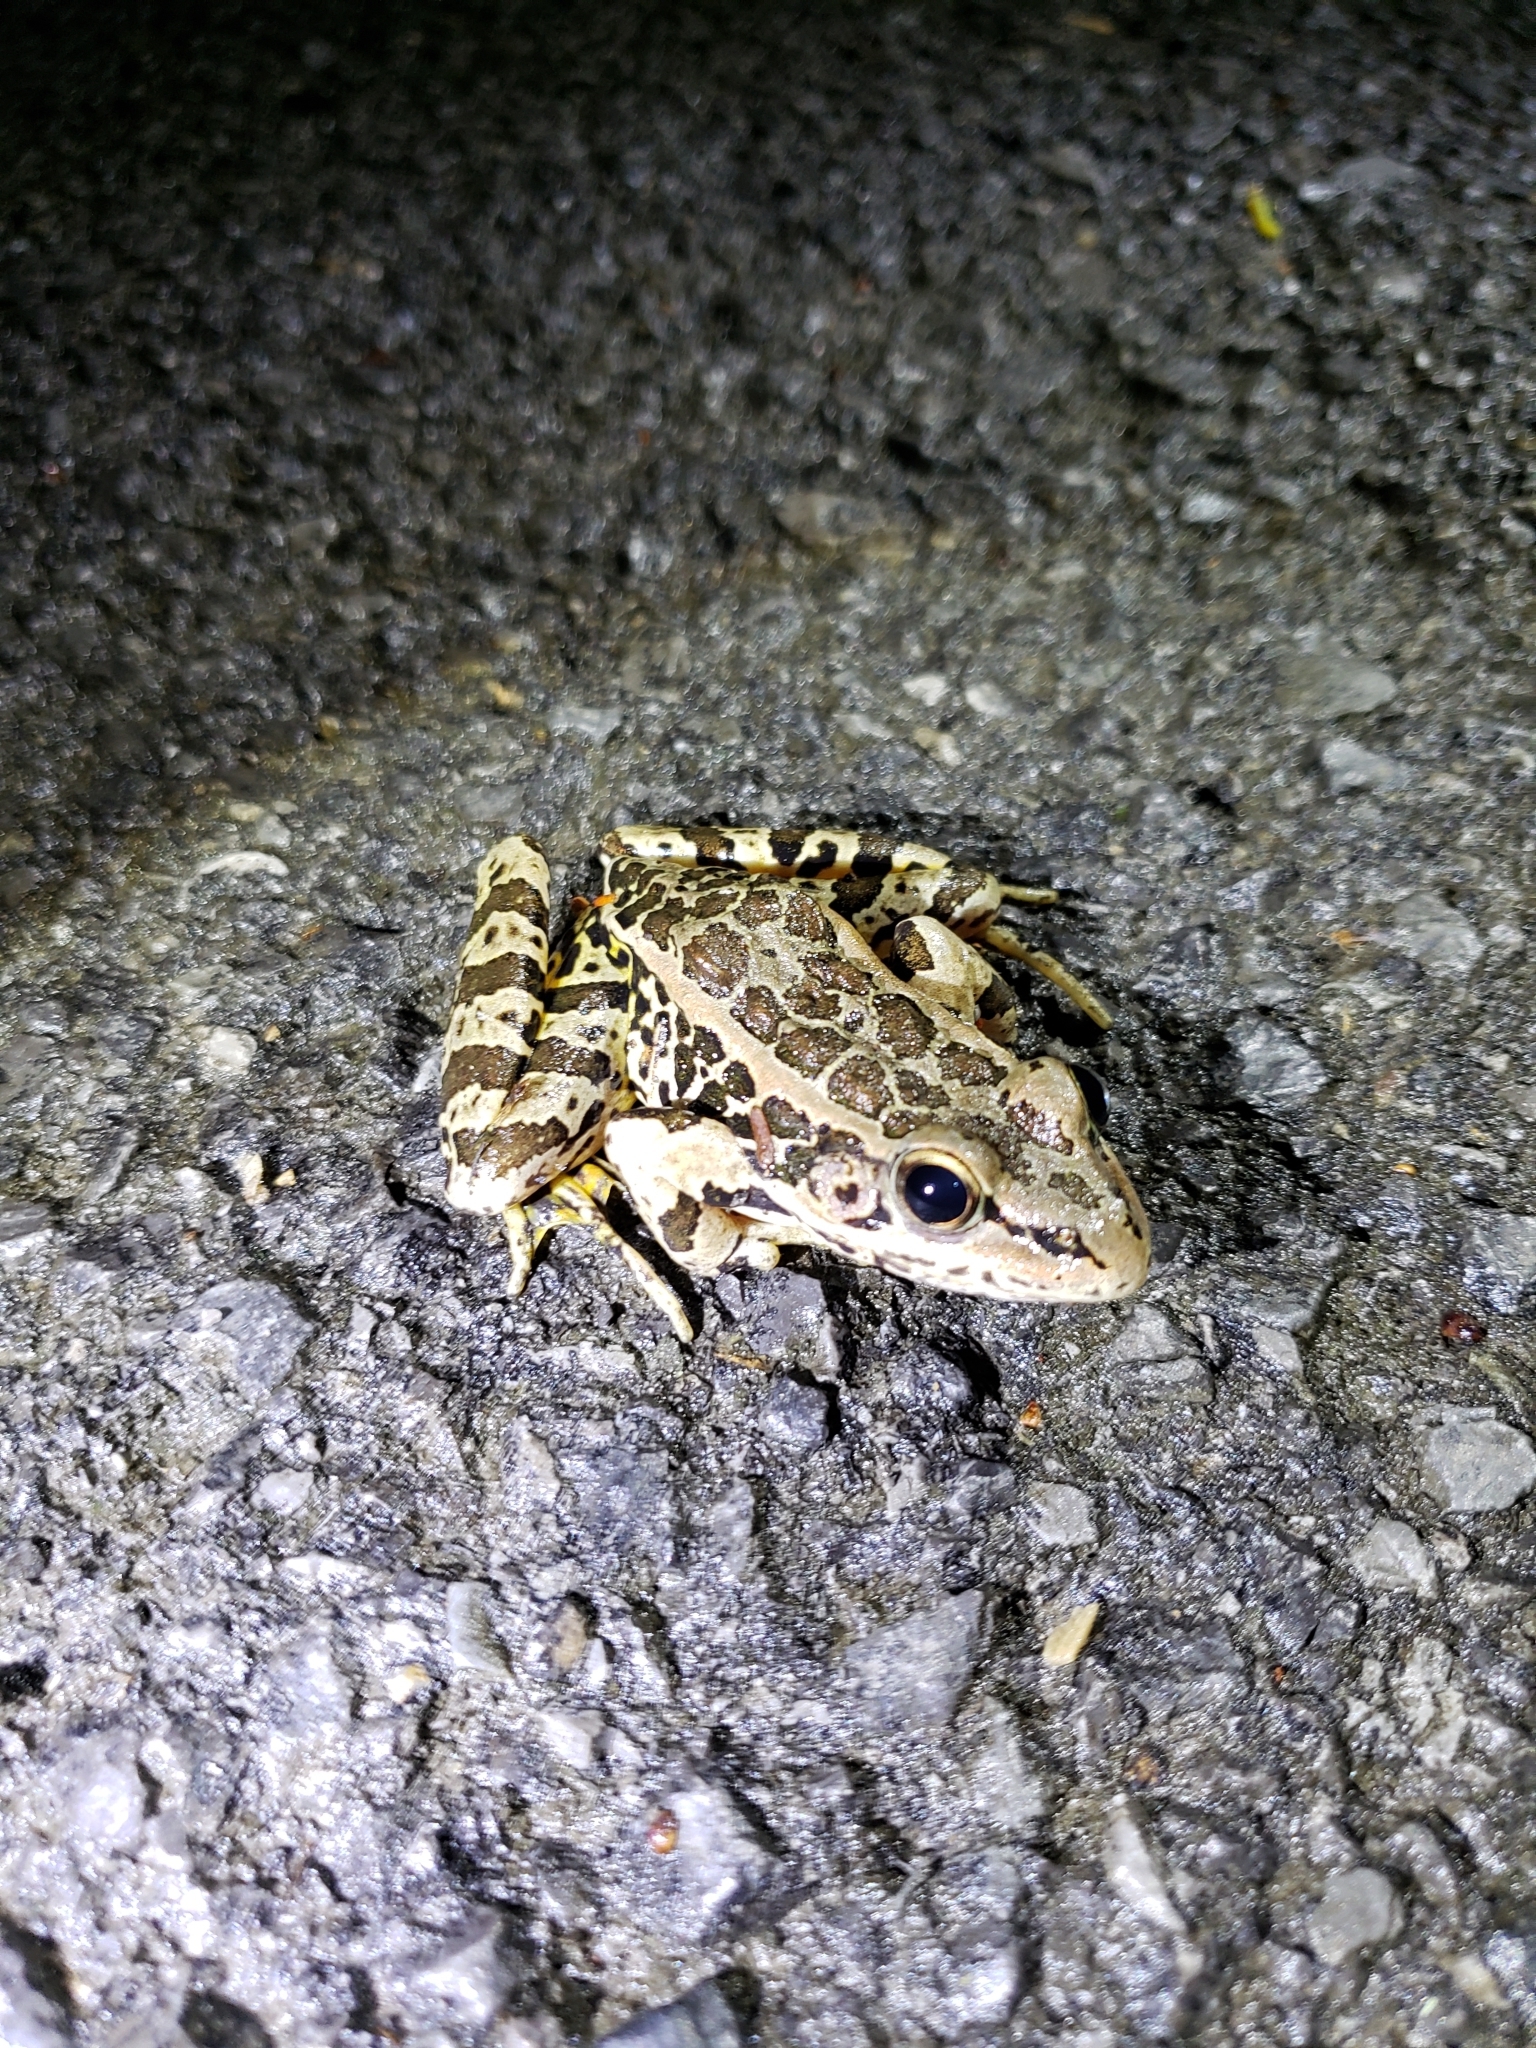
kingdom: Animalia
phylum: Chordata
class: Amphibia
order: Anura
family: Ranidae
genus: Lithobates
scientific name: Lithobates palustris
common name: Pickerel frog
